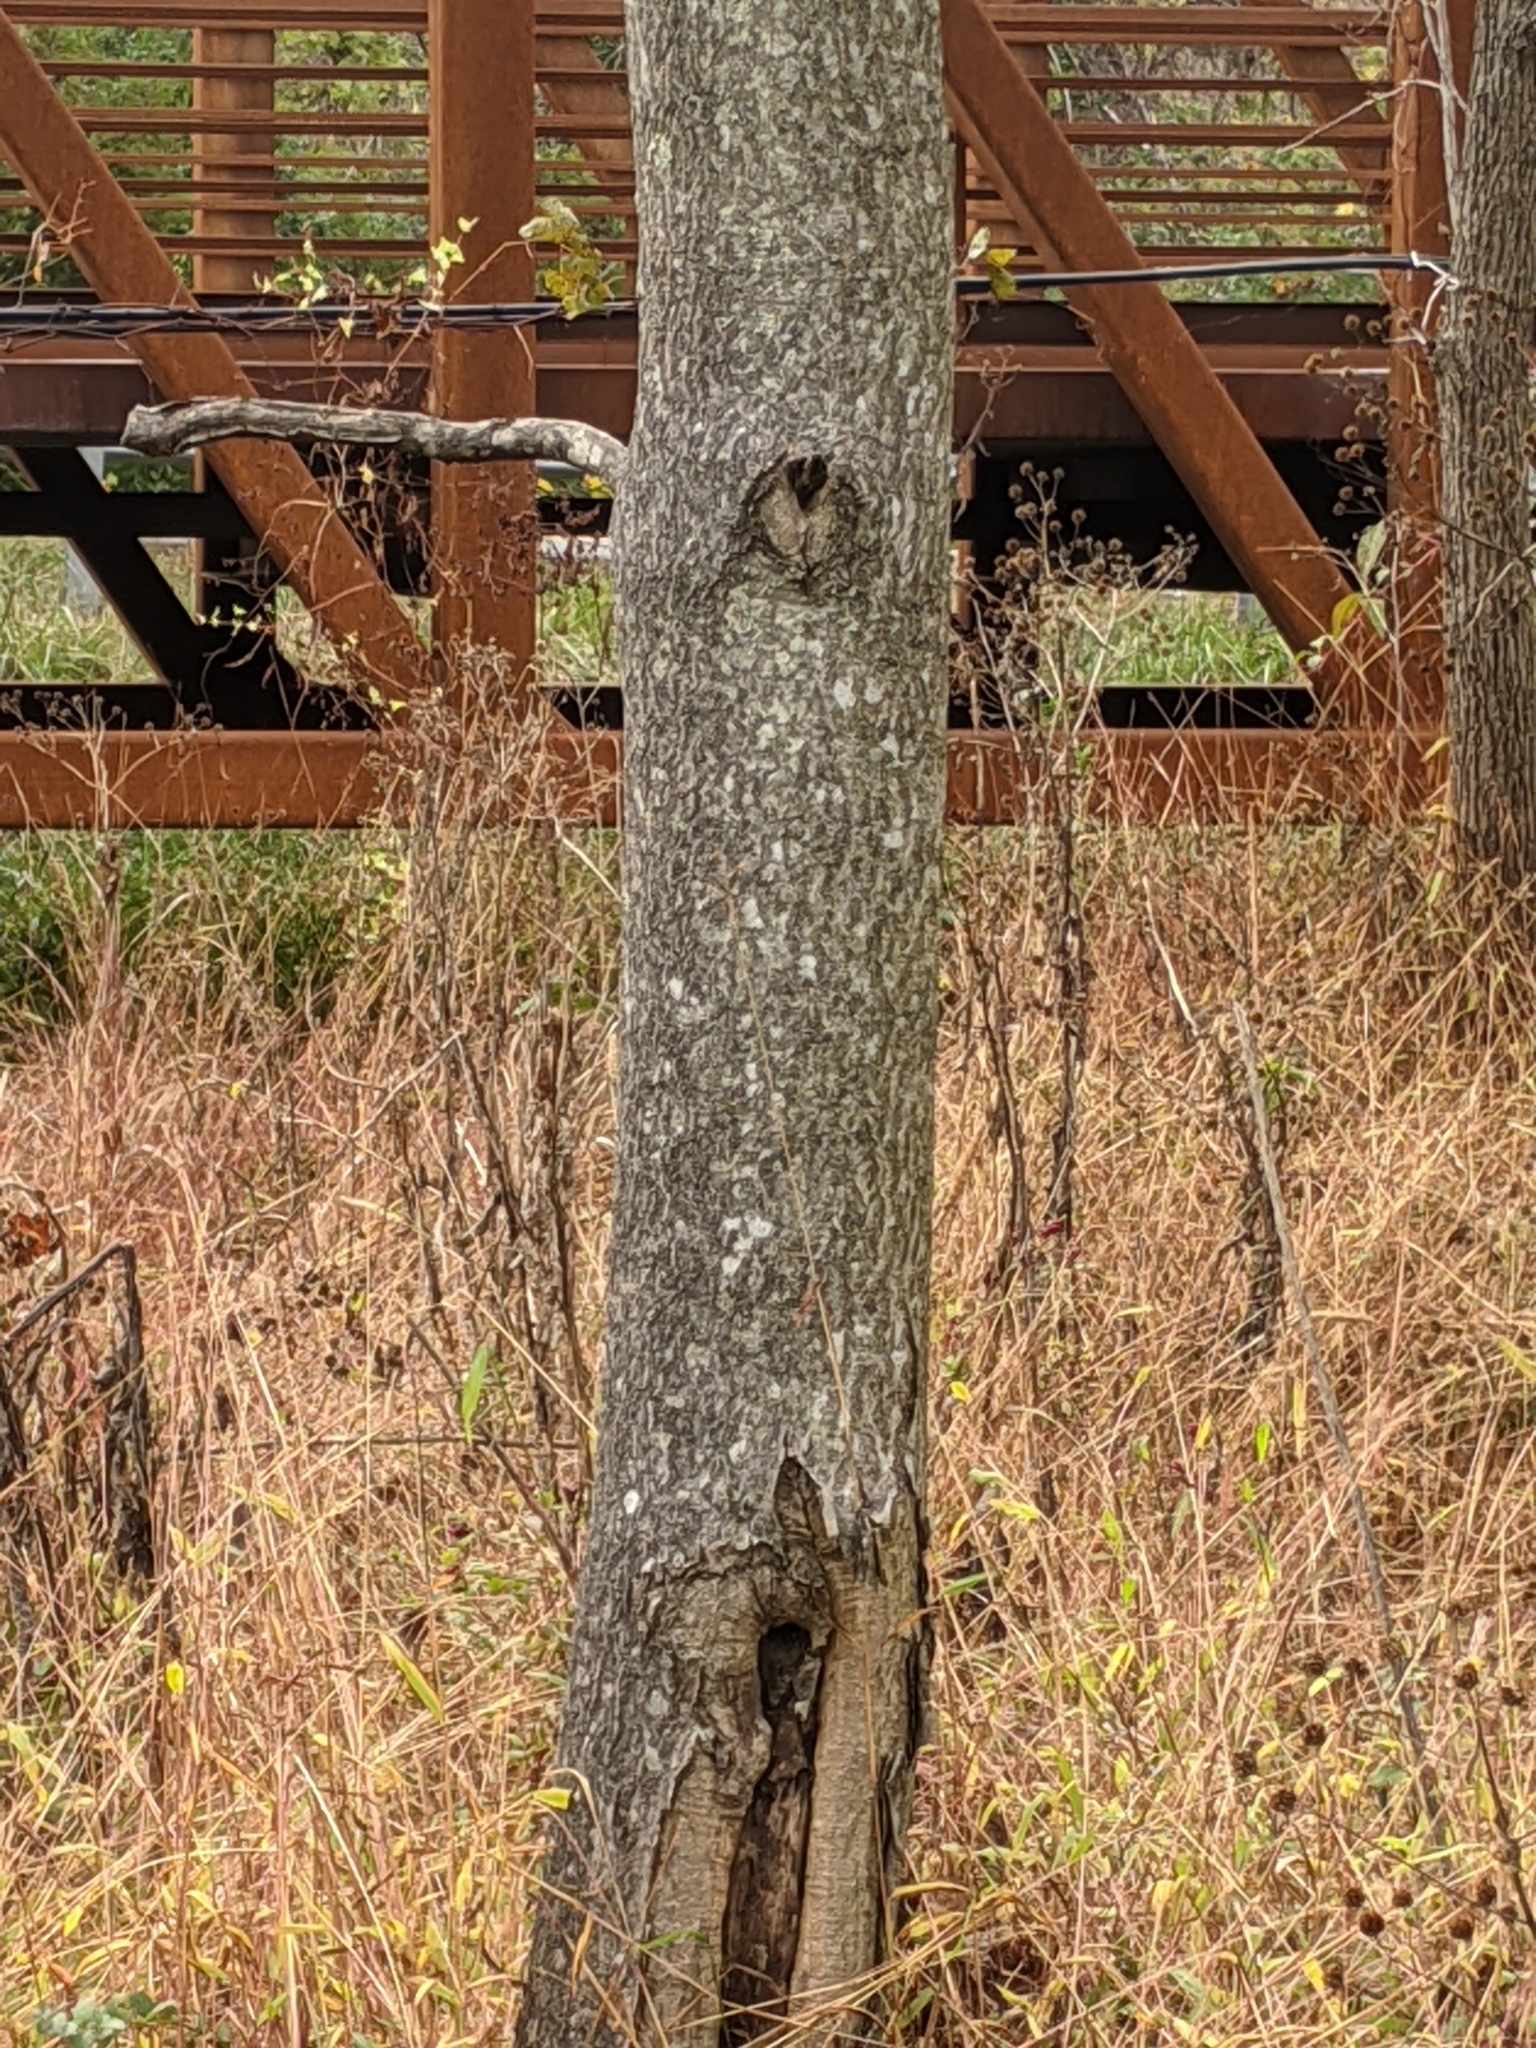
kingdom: Plantae
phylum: Tracheophyta
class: Magnoliopsida
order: Sapindales
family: Simaroubaceae
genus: Ailanthus
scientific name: Ailanthus altissima
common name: Tree-of-heaven
